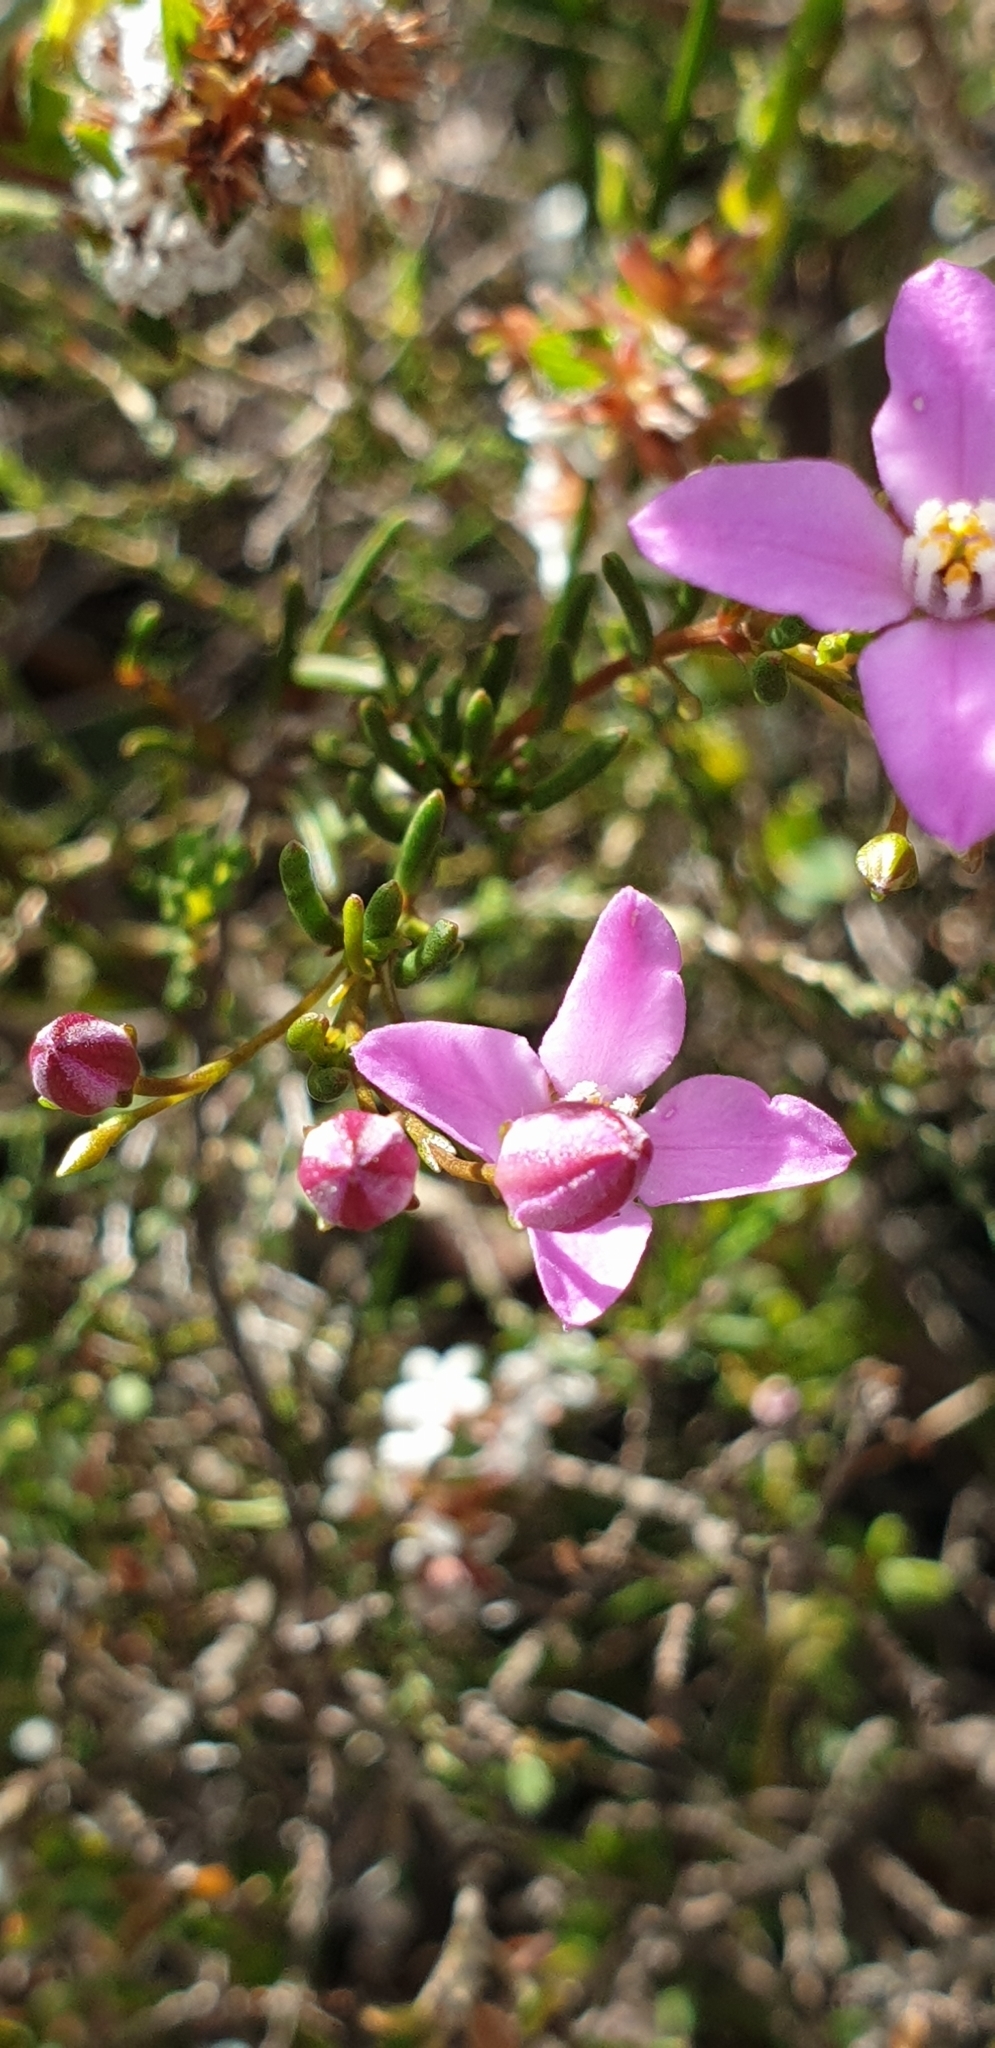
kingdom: Plantae
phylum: Tracheophyta
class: Magnoliopsida
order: Sapindales
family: Rutaceae
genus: Boronia
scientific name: Boronia filifolia
